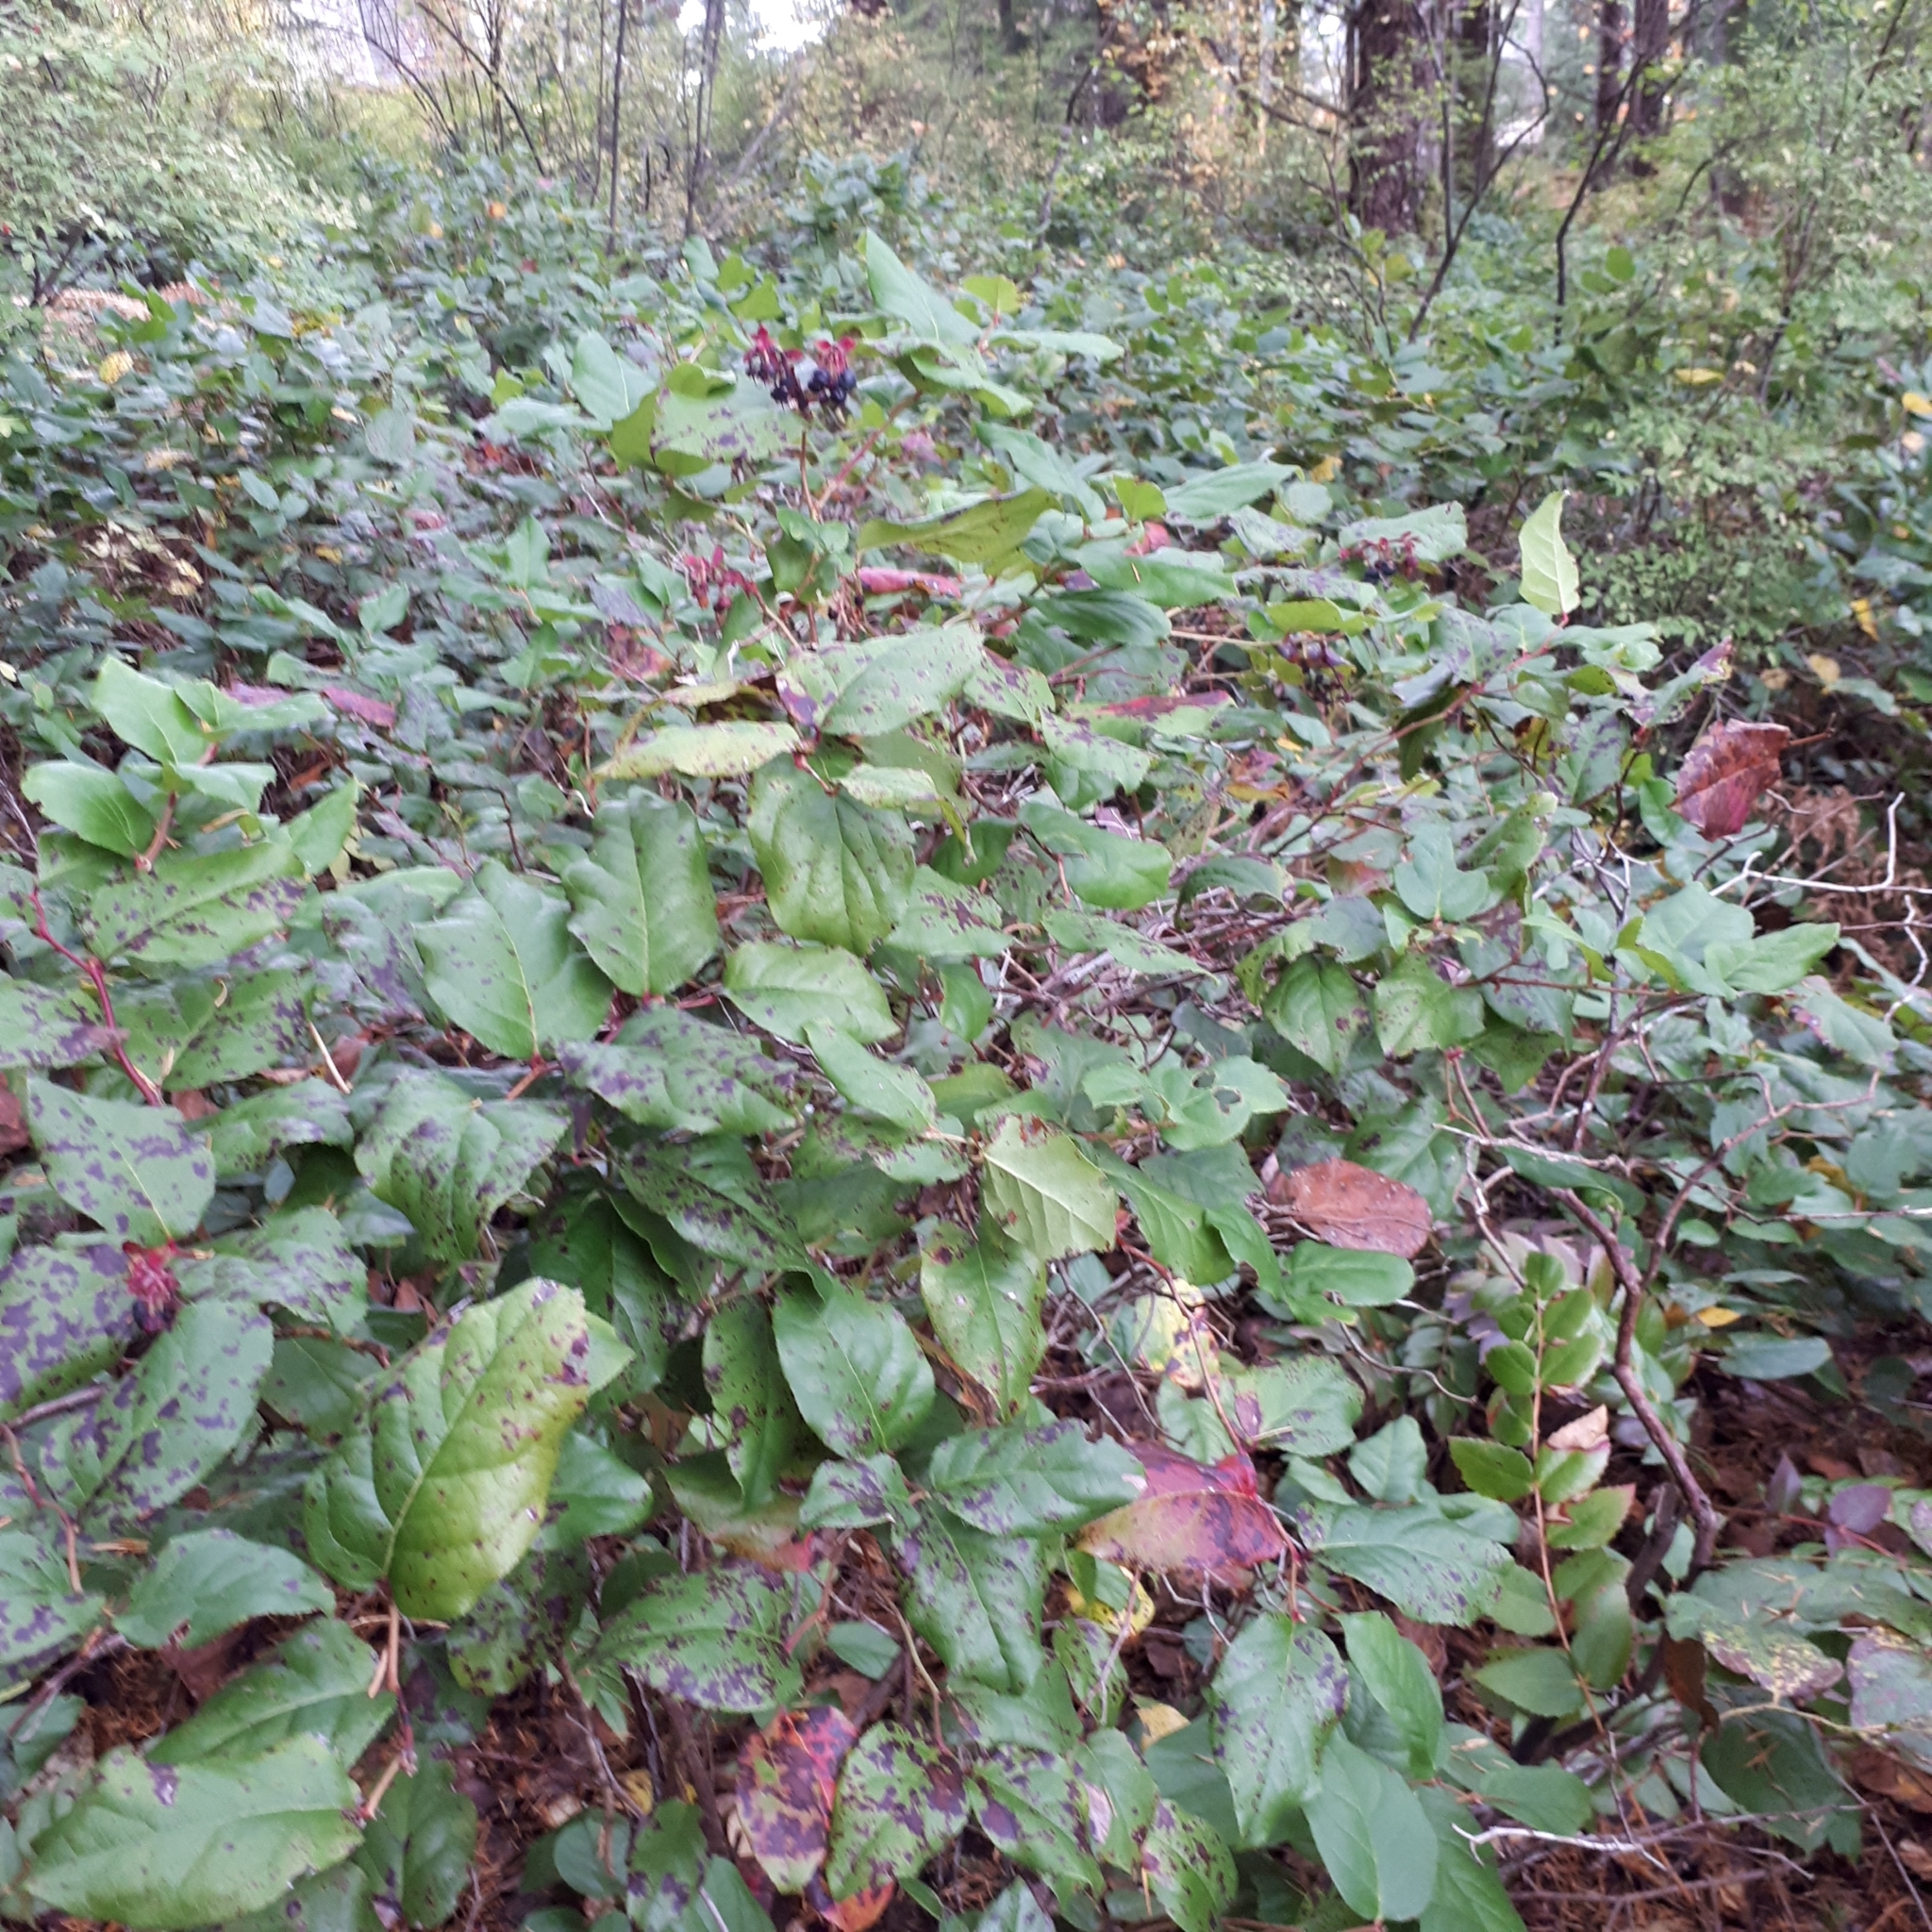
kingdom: Plantae
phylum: Tracheophyta
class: Magnoliopsida
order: Ericales
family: Ericaceae
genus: Gaultheria
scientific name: Gaultheria shallon
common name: Shallon
